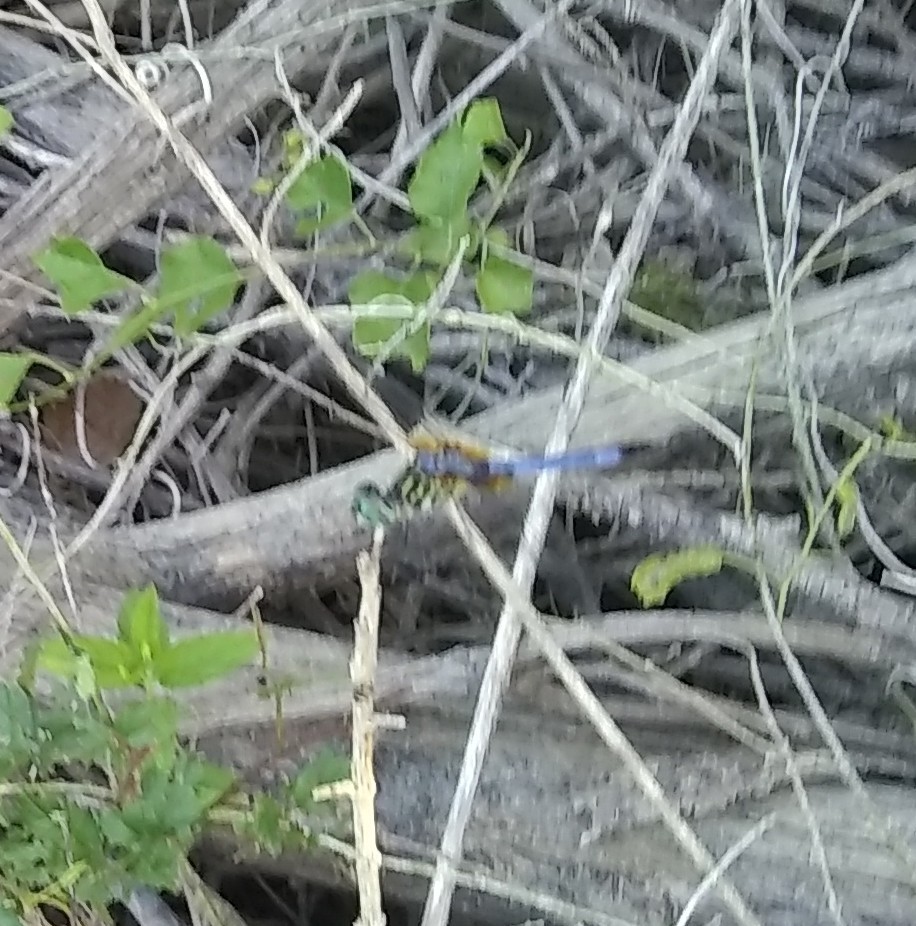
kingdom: Animalia
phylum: Arthropoda
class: Insecta
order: Odonata
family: Libellulidae
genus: Pachydiplax
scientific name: Pachydiplax longipennis
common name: Blue dasher
